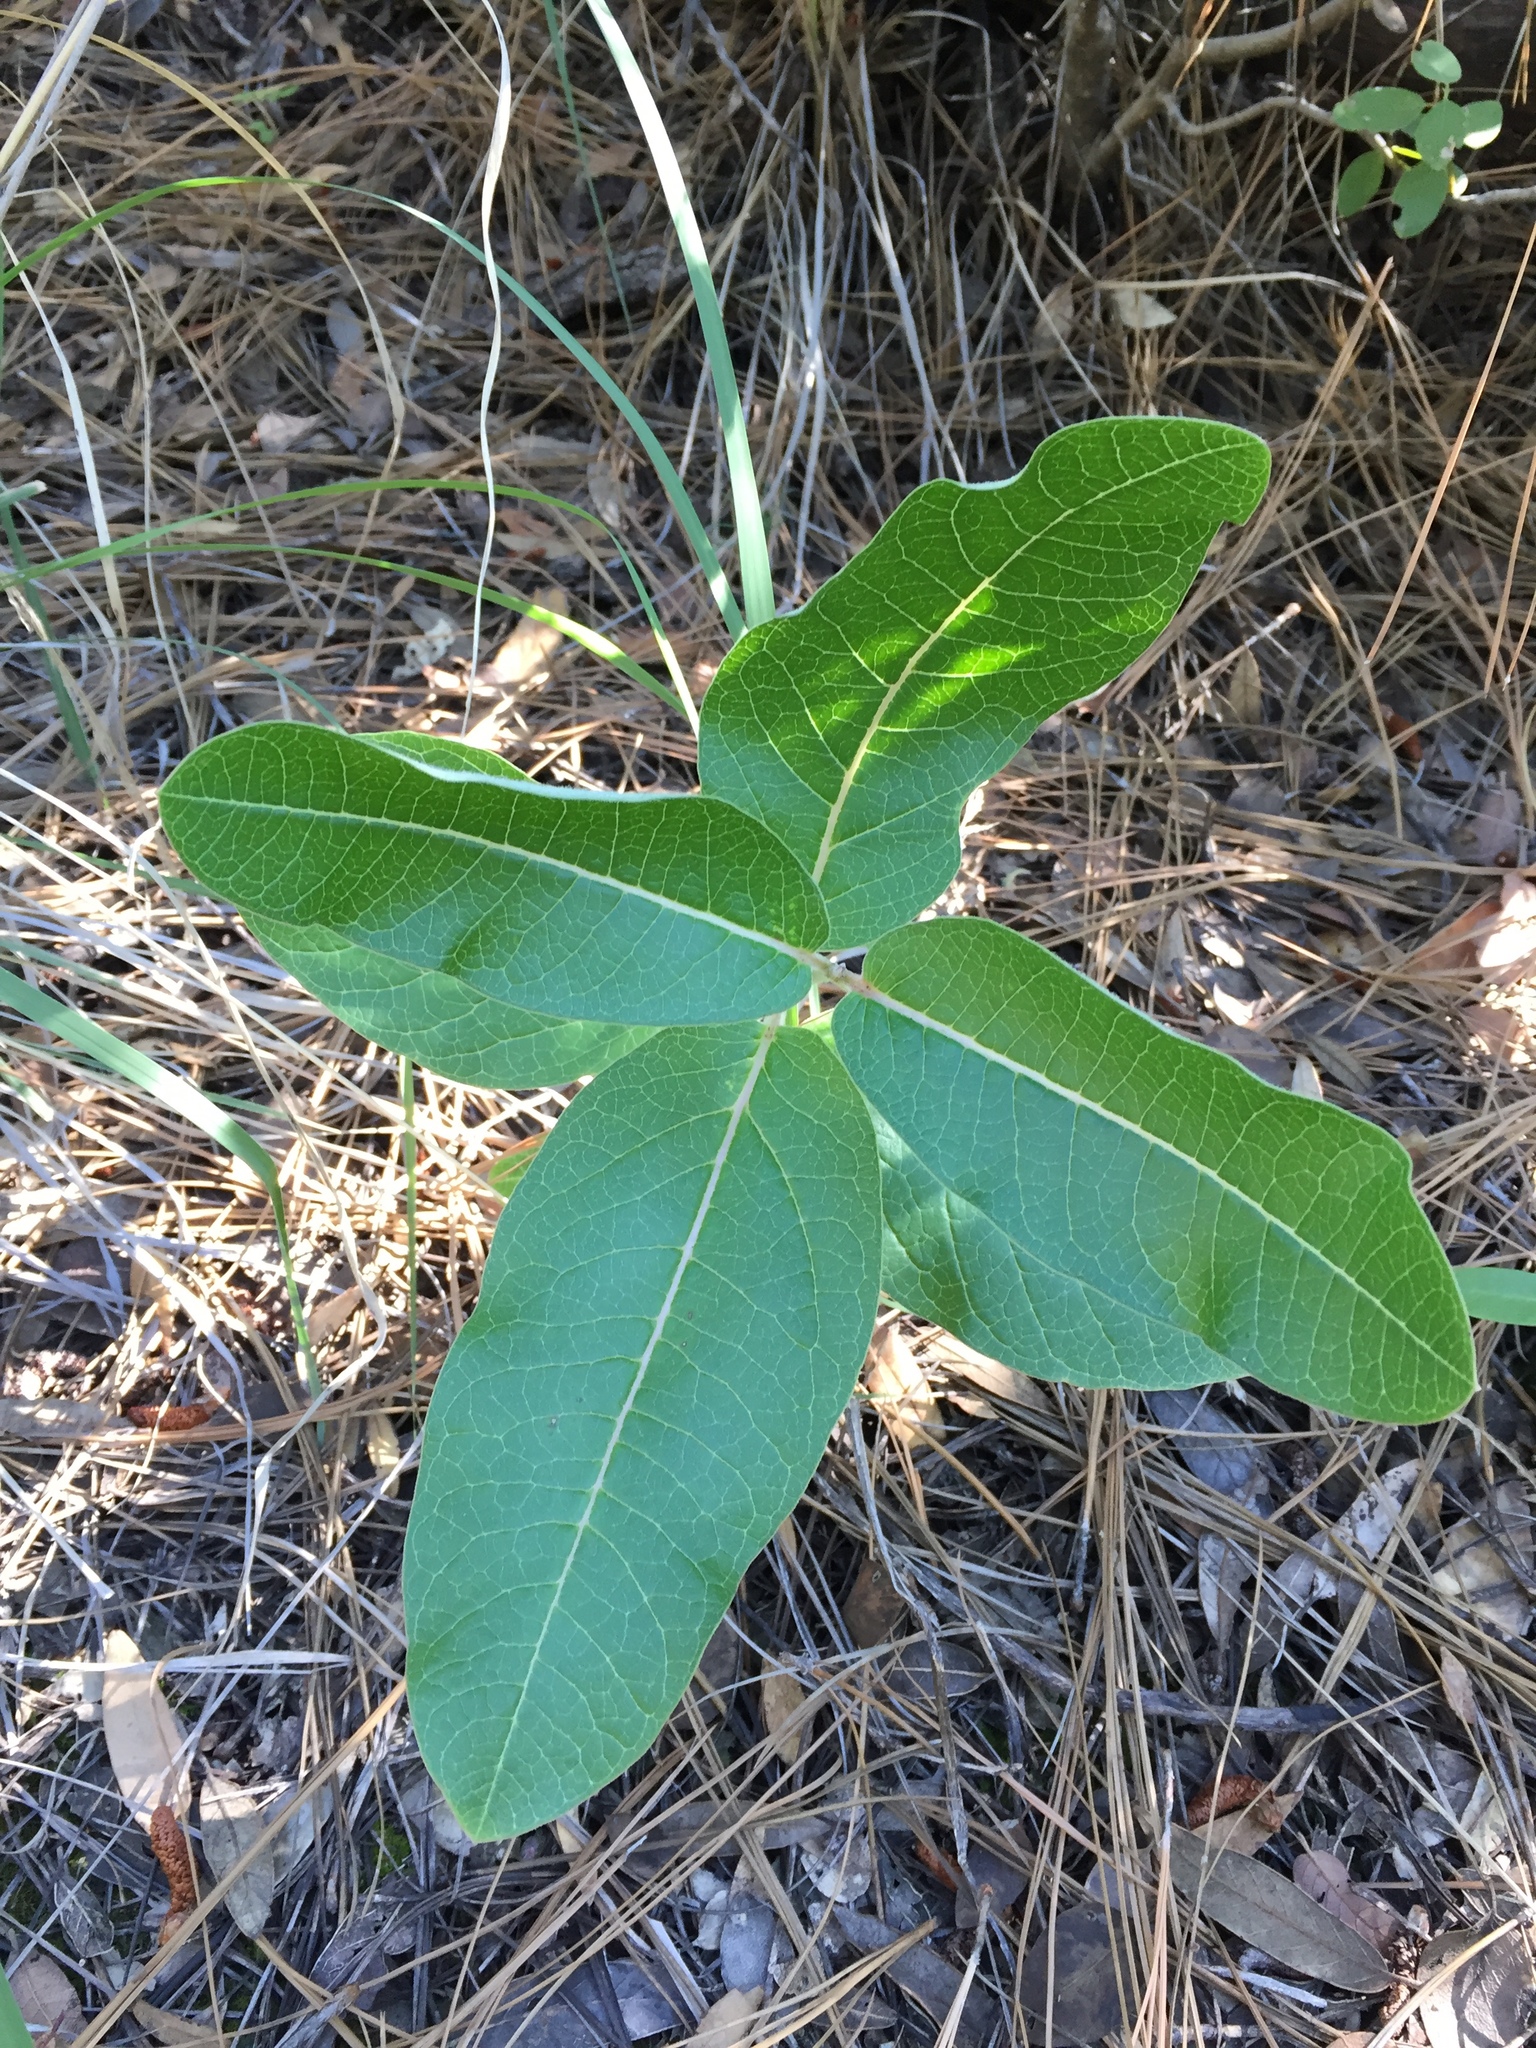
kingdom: Plantae
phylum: Tracheophyta
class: Magnoliopsida
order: Gentianales
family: Apocynaceae
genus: Asclepias
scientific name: Asclepias hypoleuca
